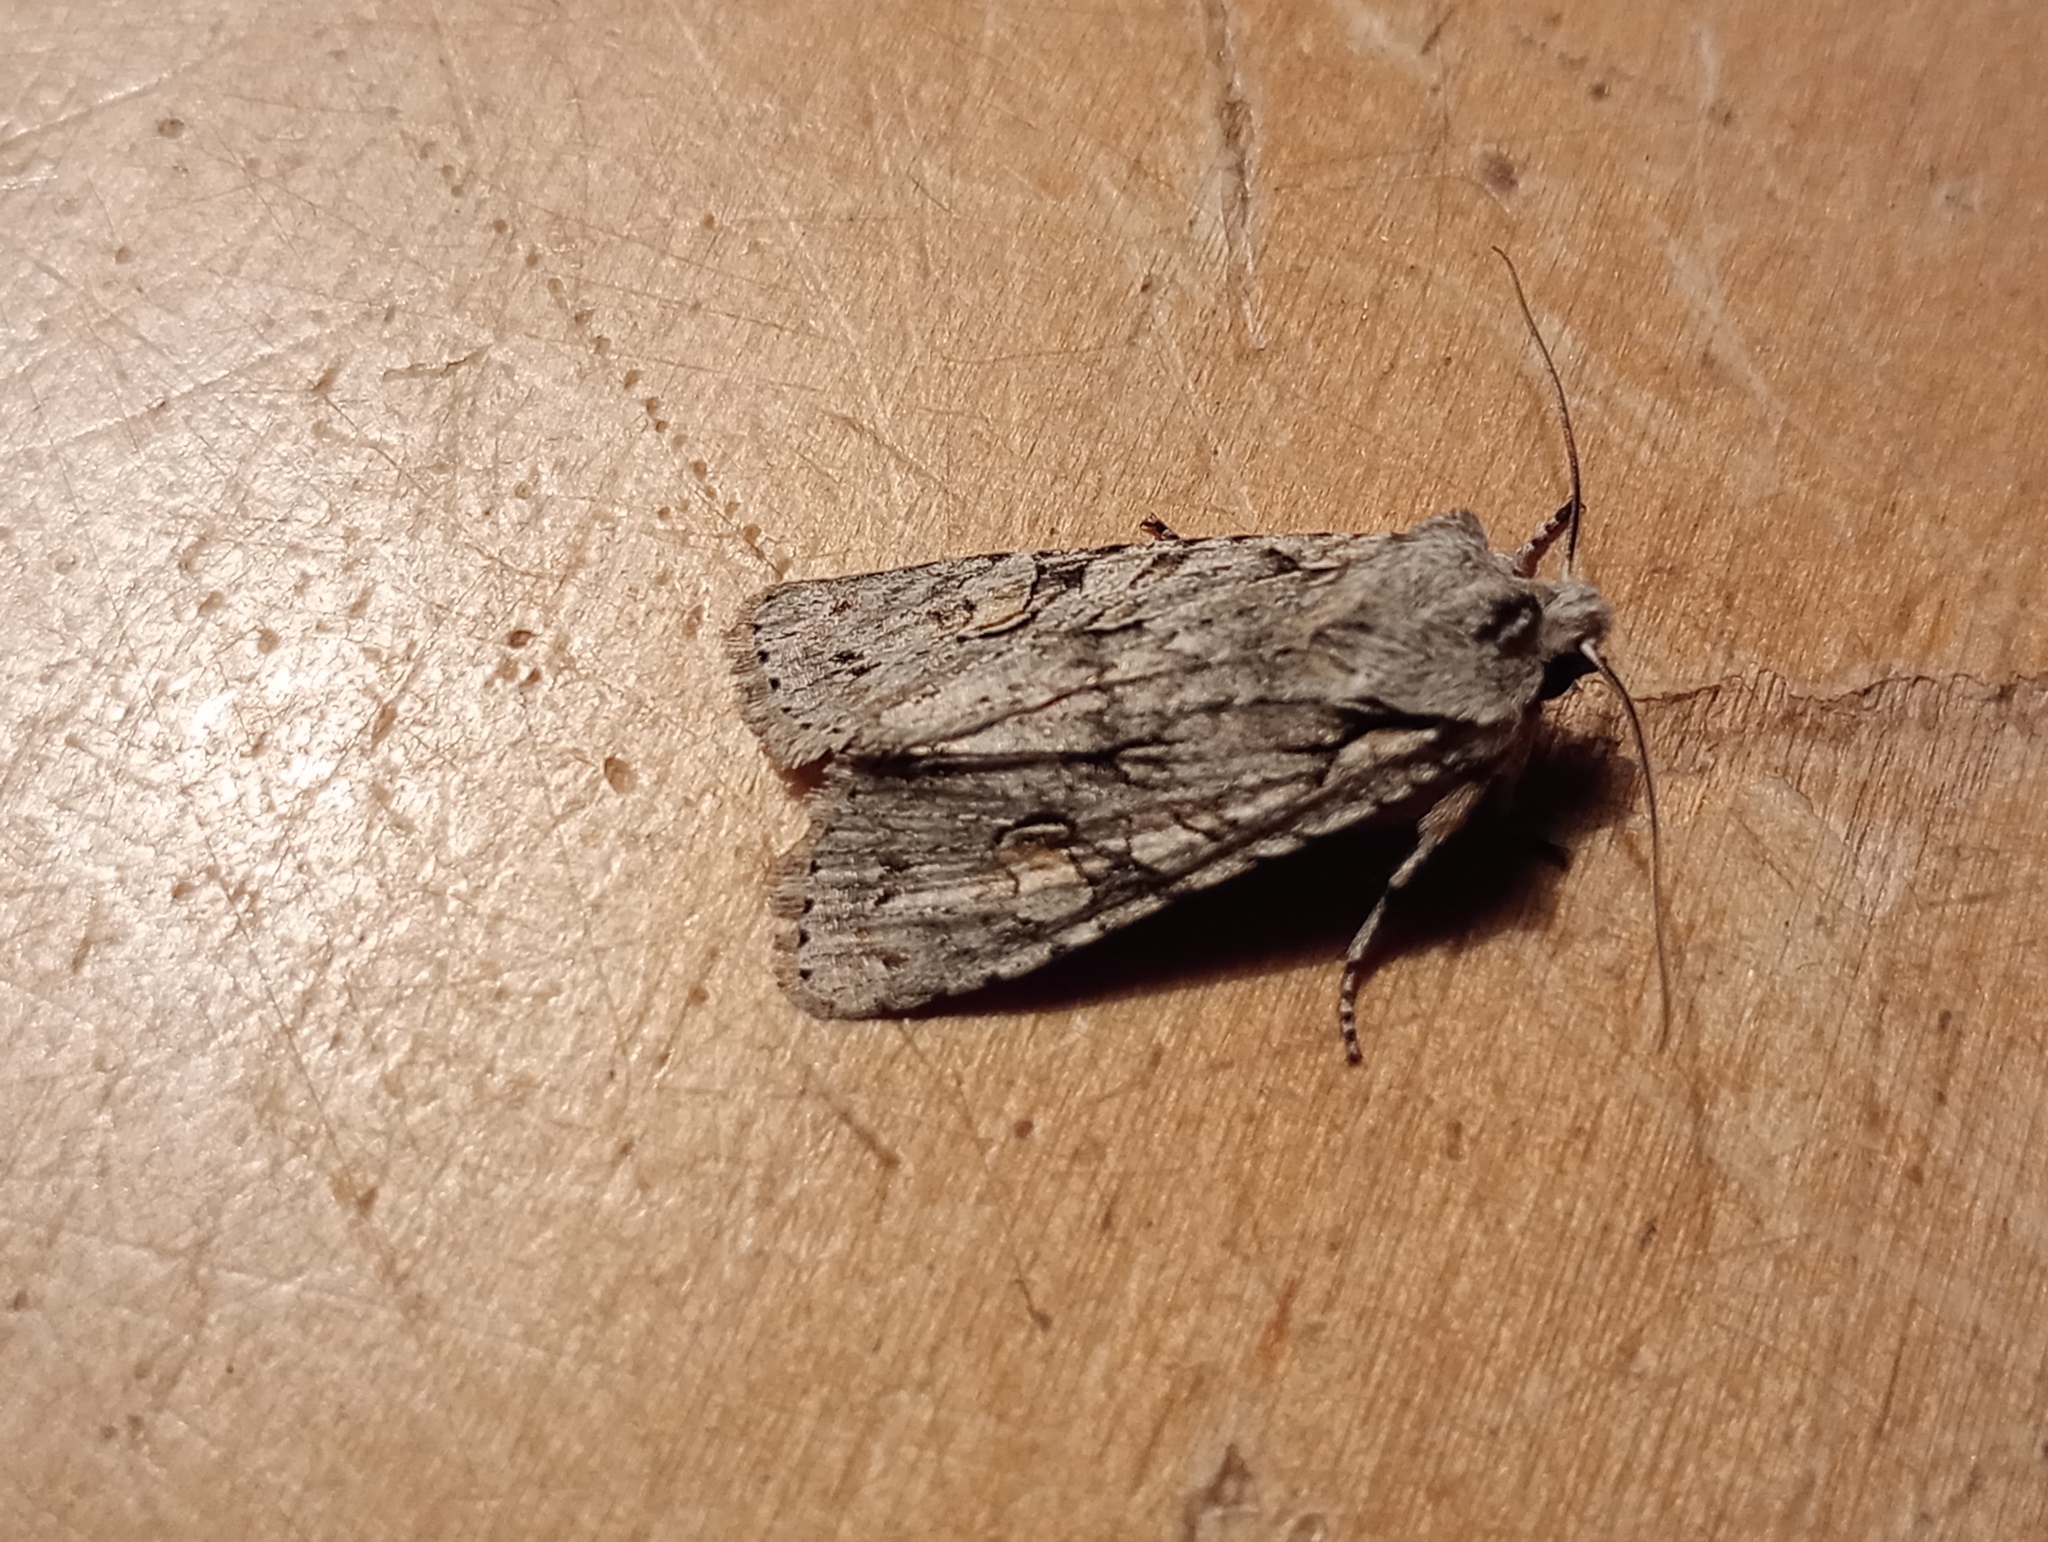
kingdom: Animalia
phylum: Arthropoda
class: Insecta
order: Lepidoptera
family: Noctuidae
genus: Lithophane
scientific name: Lithophane ornitopus
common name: Grey shoulder-knot
